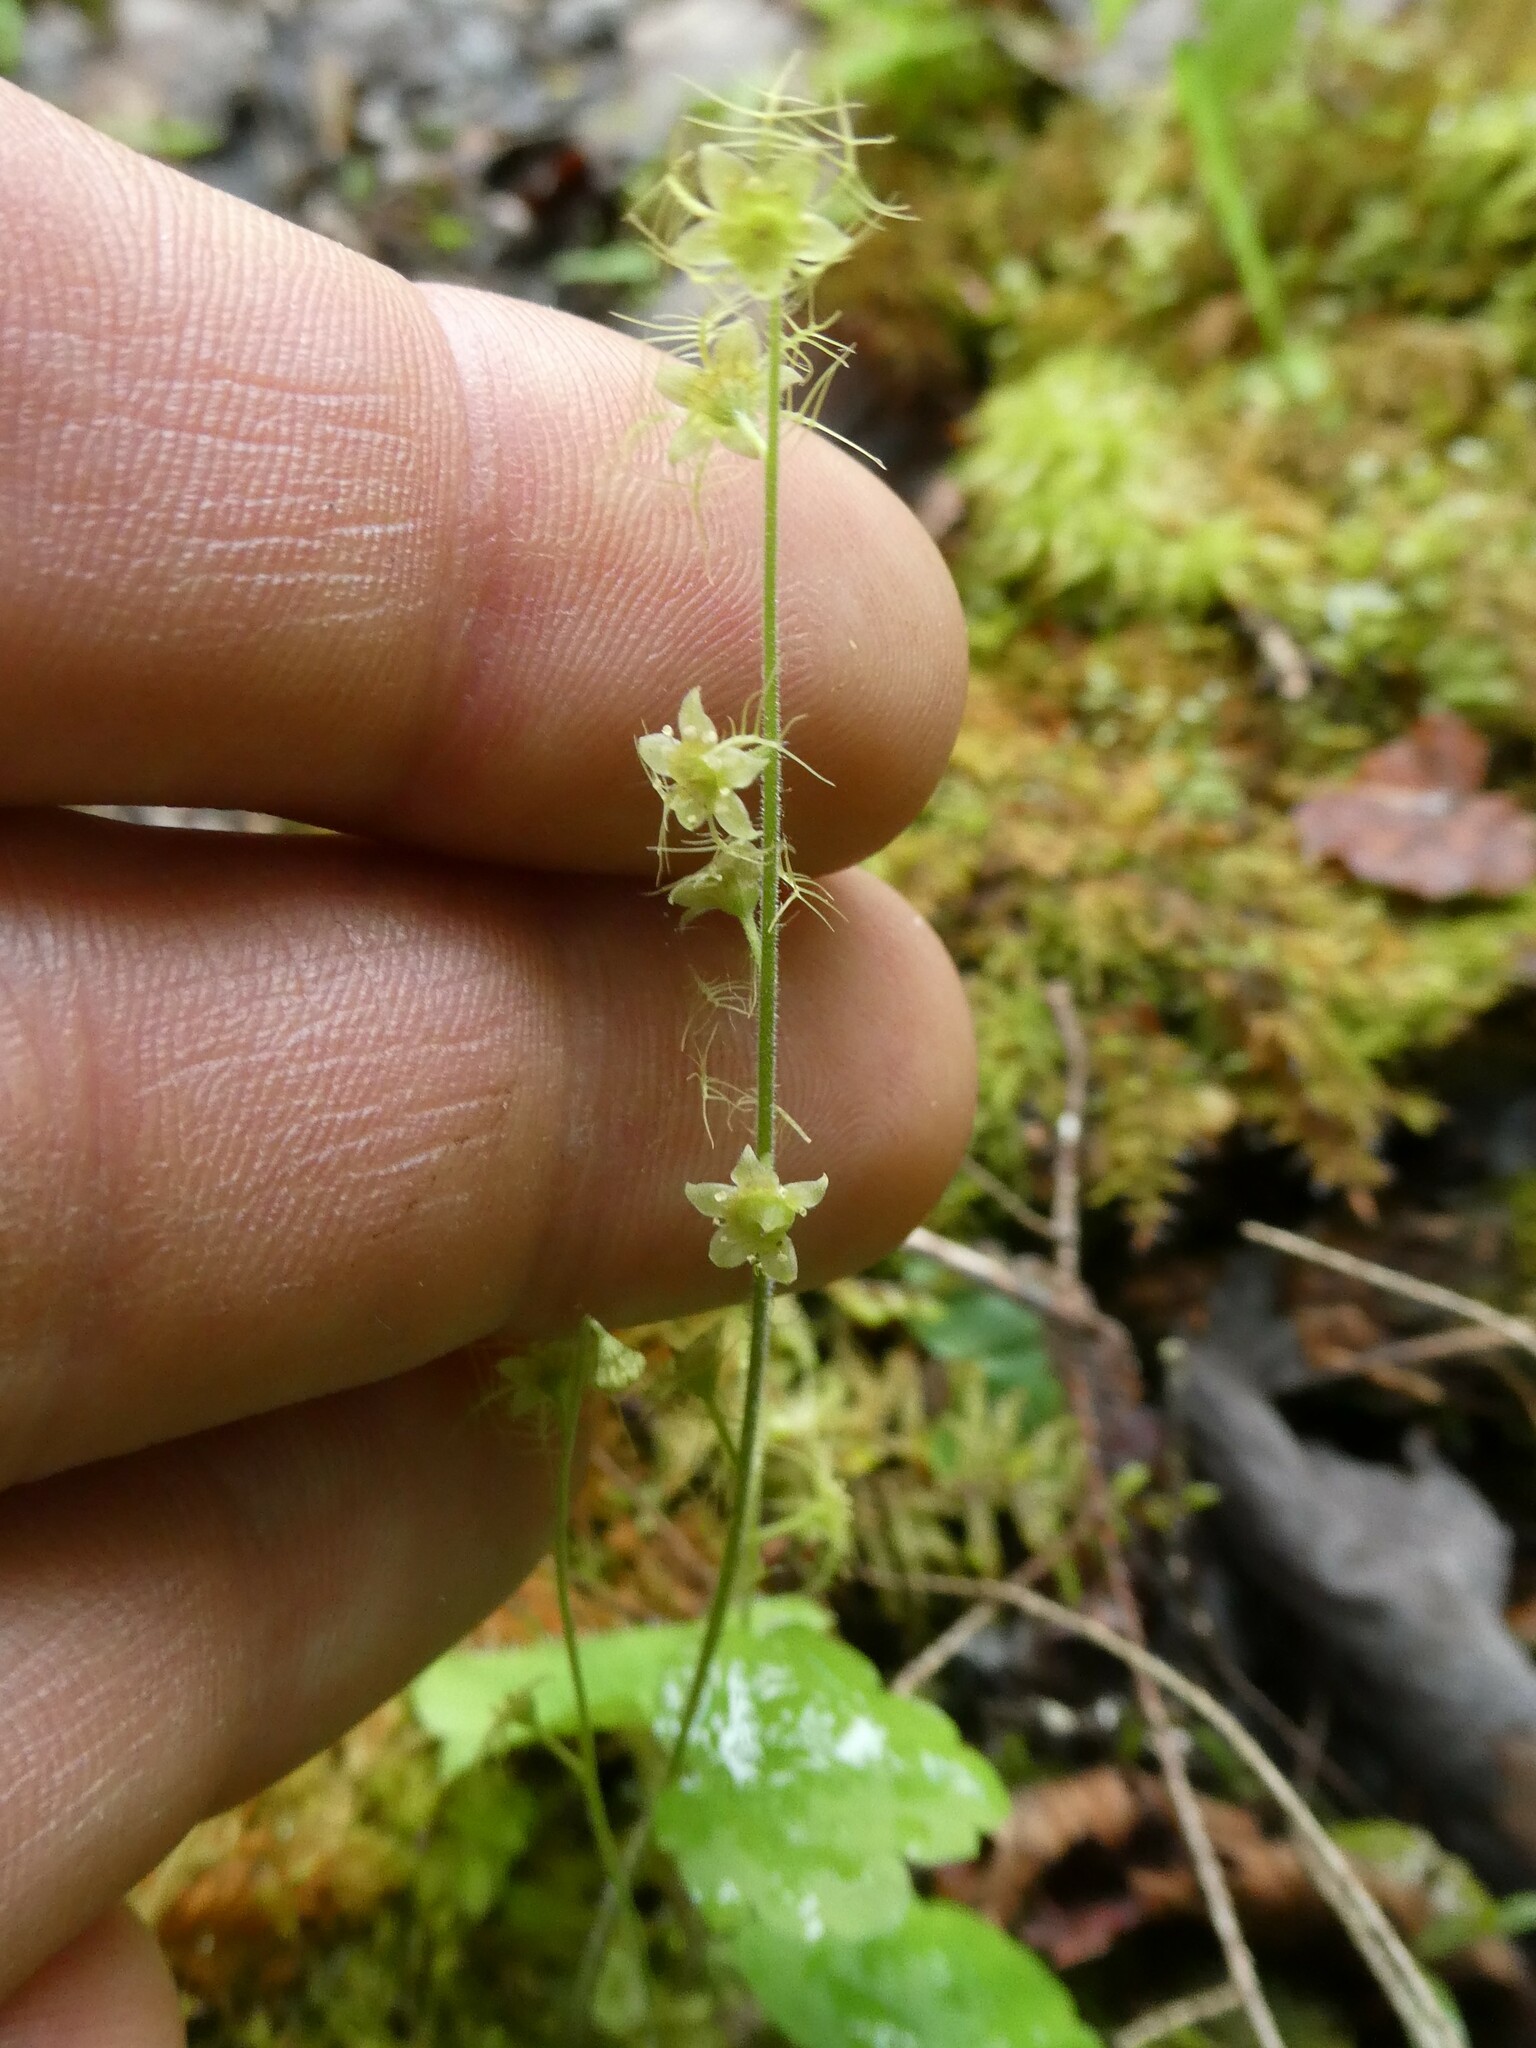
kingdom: Plantae
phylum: Tracheophyta
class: Magnoliopsida
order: Saxifragales
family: Saxifragaceae
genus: Mitella
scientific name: Mitella nuda
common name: Bare-stemmed bishop's-cap
